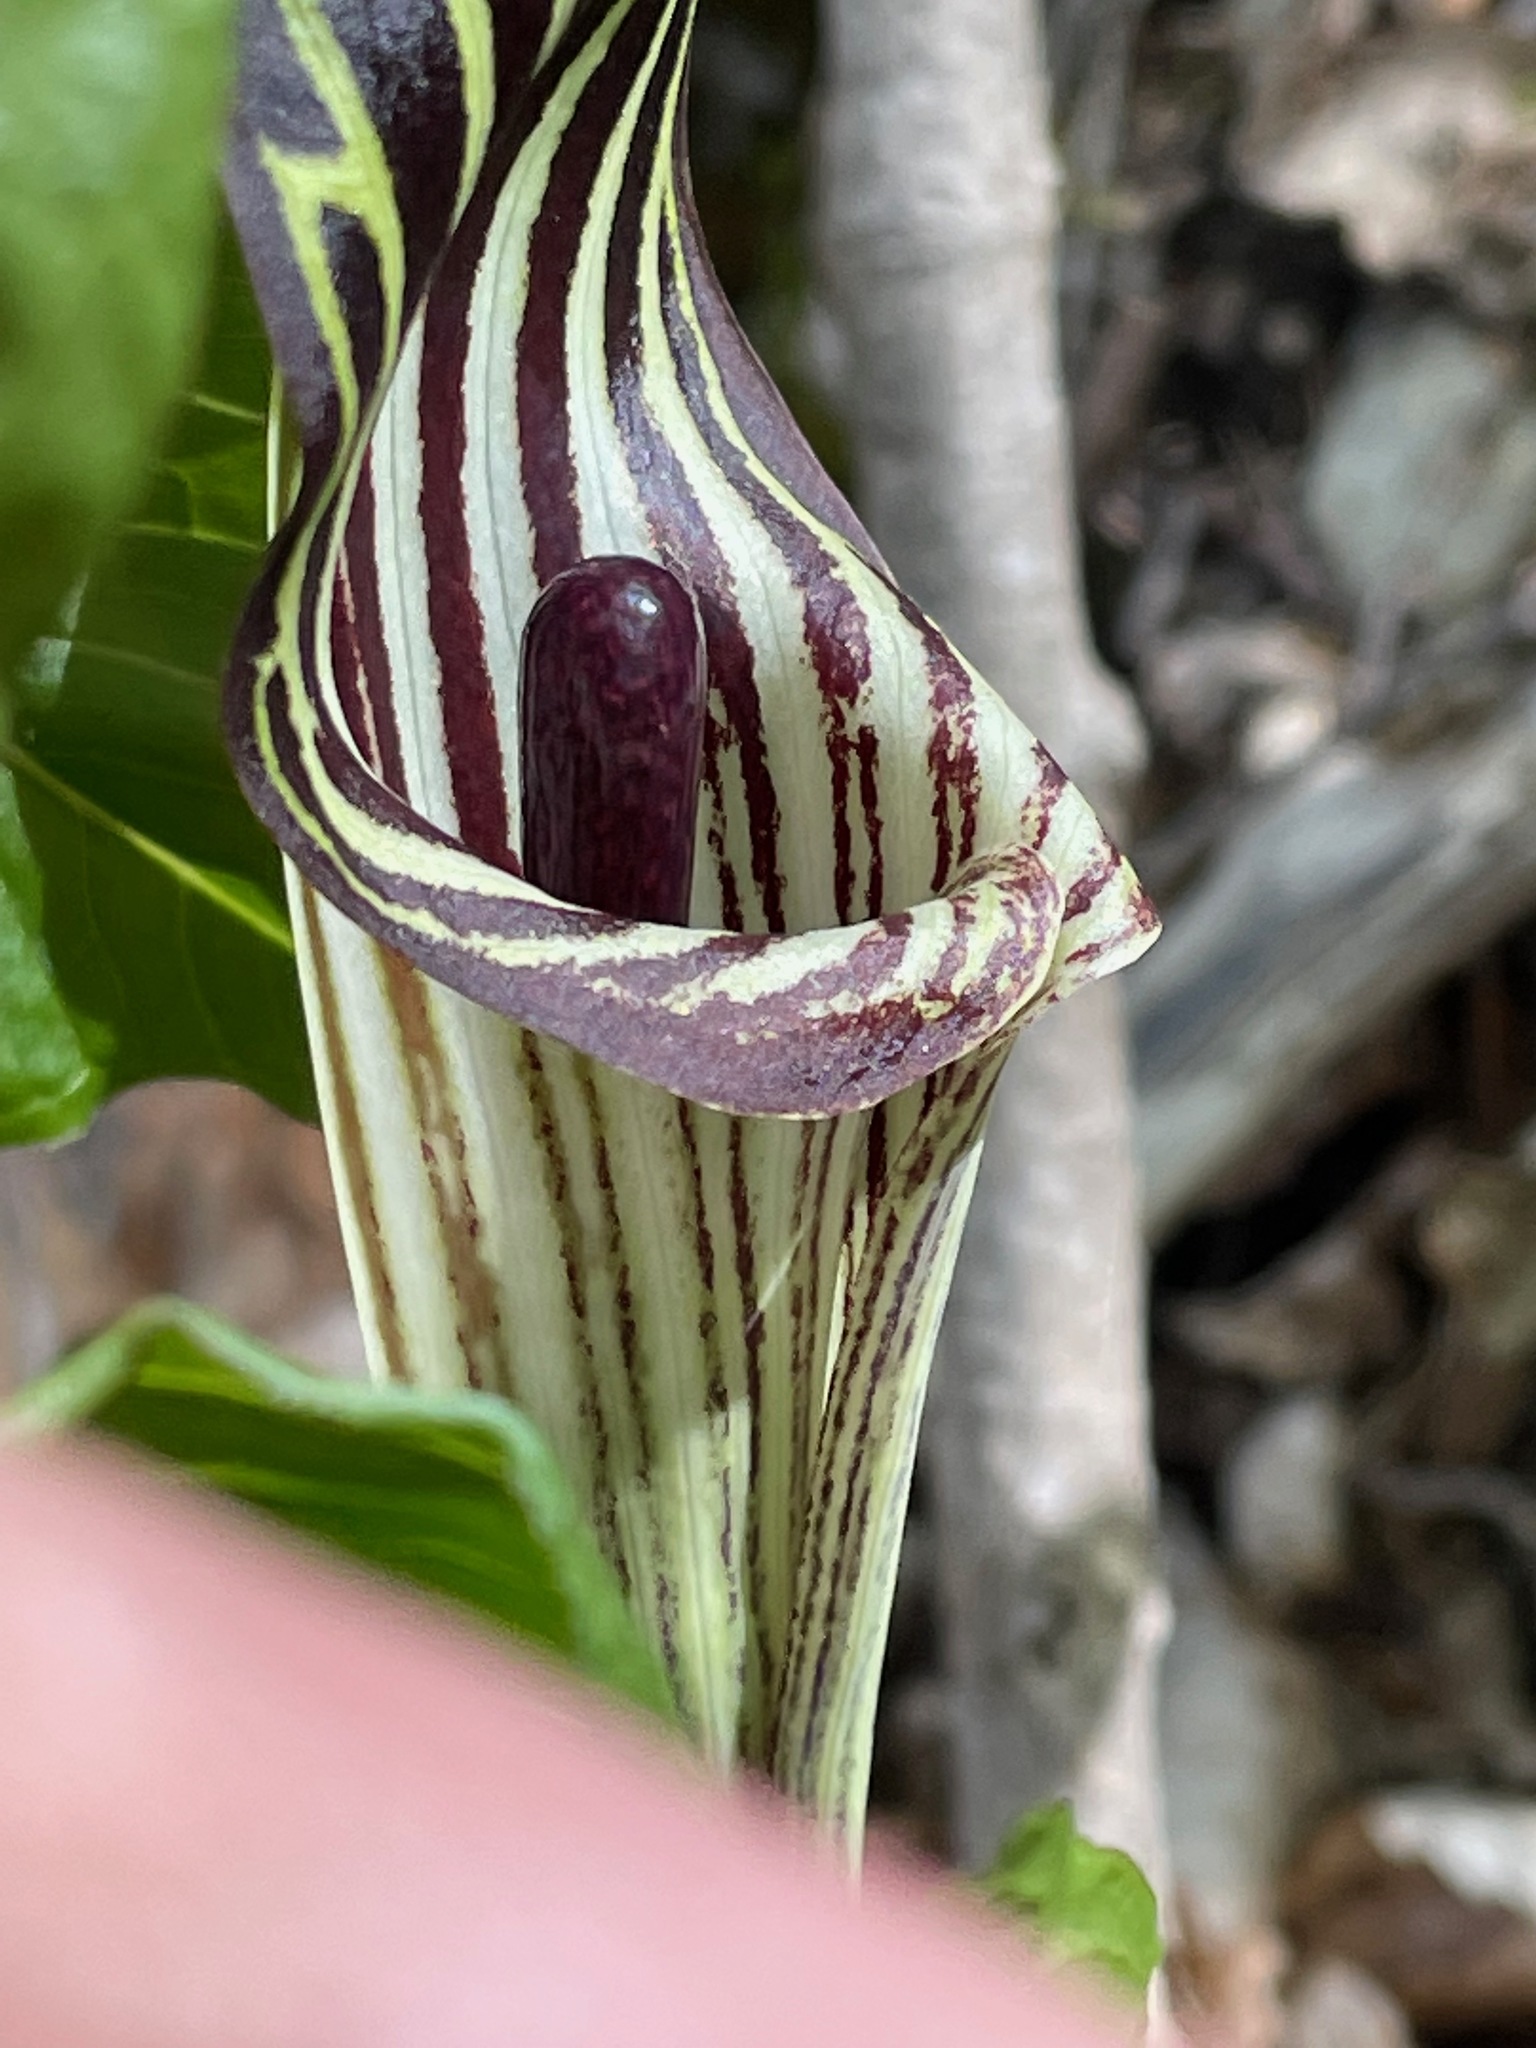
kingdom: Plantae
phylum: Tracheophyta
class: Liliopsida
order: Alismatales
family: Araceae
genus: Arisaema
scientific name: Arisaema triphyllum
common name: Jack-in-the-pulpit
